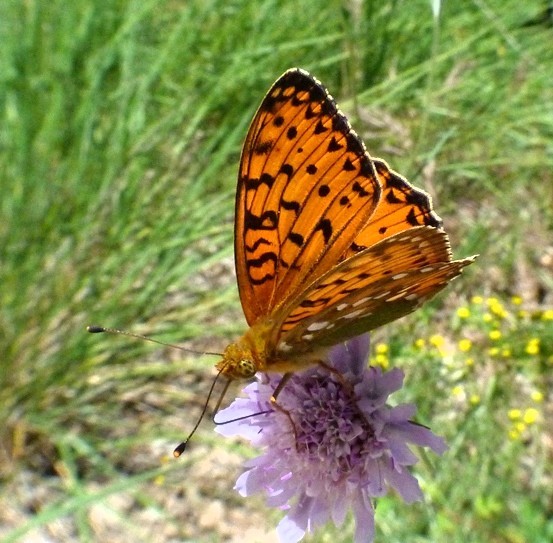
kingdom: Animalia
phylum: Arthropoda
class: Insecta
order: Lepidoptera
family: Nymphalidae
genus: Speyeria
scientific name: Speyeria aglaja
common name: Dark green fritillary
